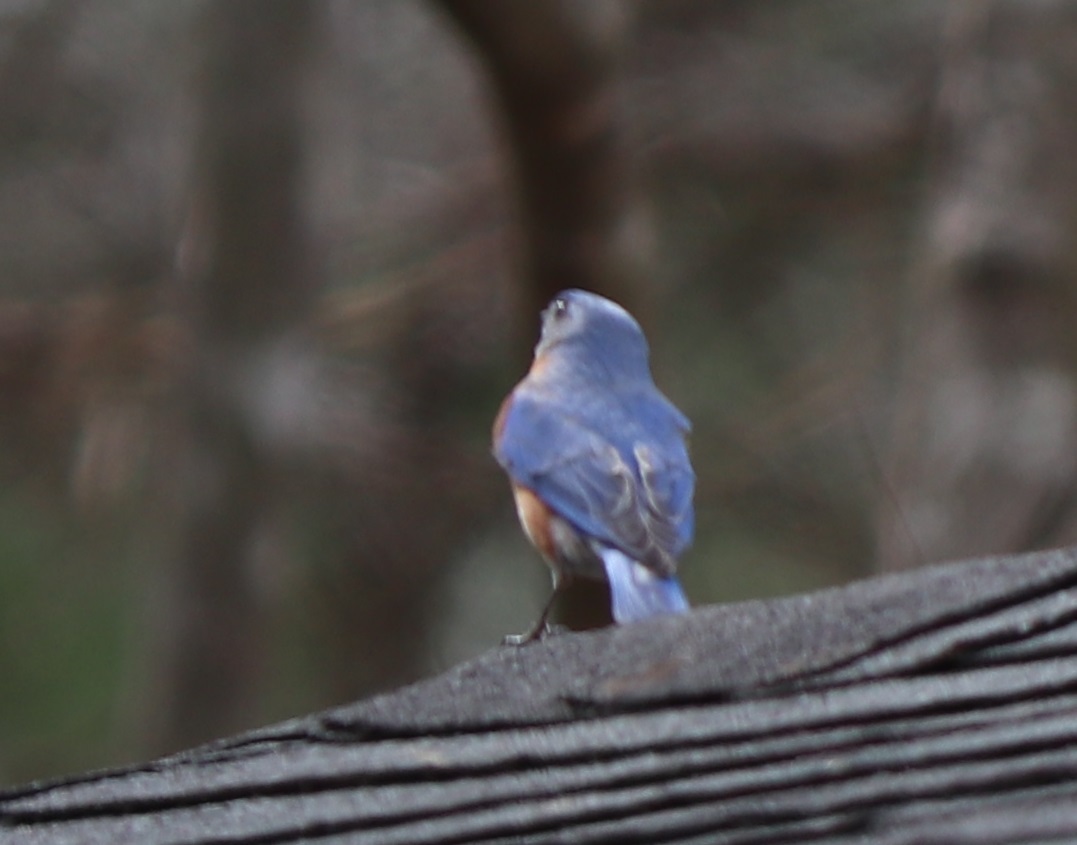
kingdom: Animalia
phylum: Chordata
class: Aves
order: Passeriformes
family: Turdidae
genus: Sialia
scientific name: Sialia sialis
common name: Eastern bluebird
